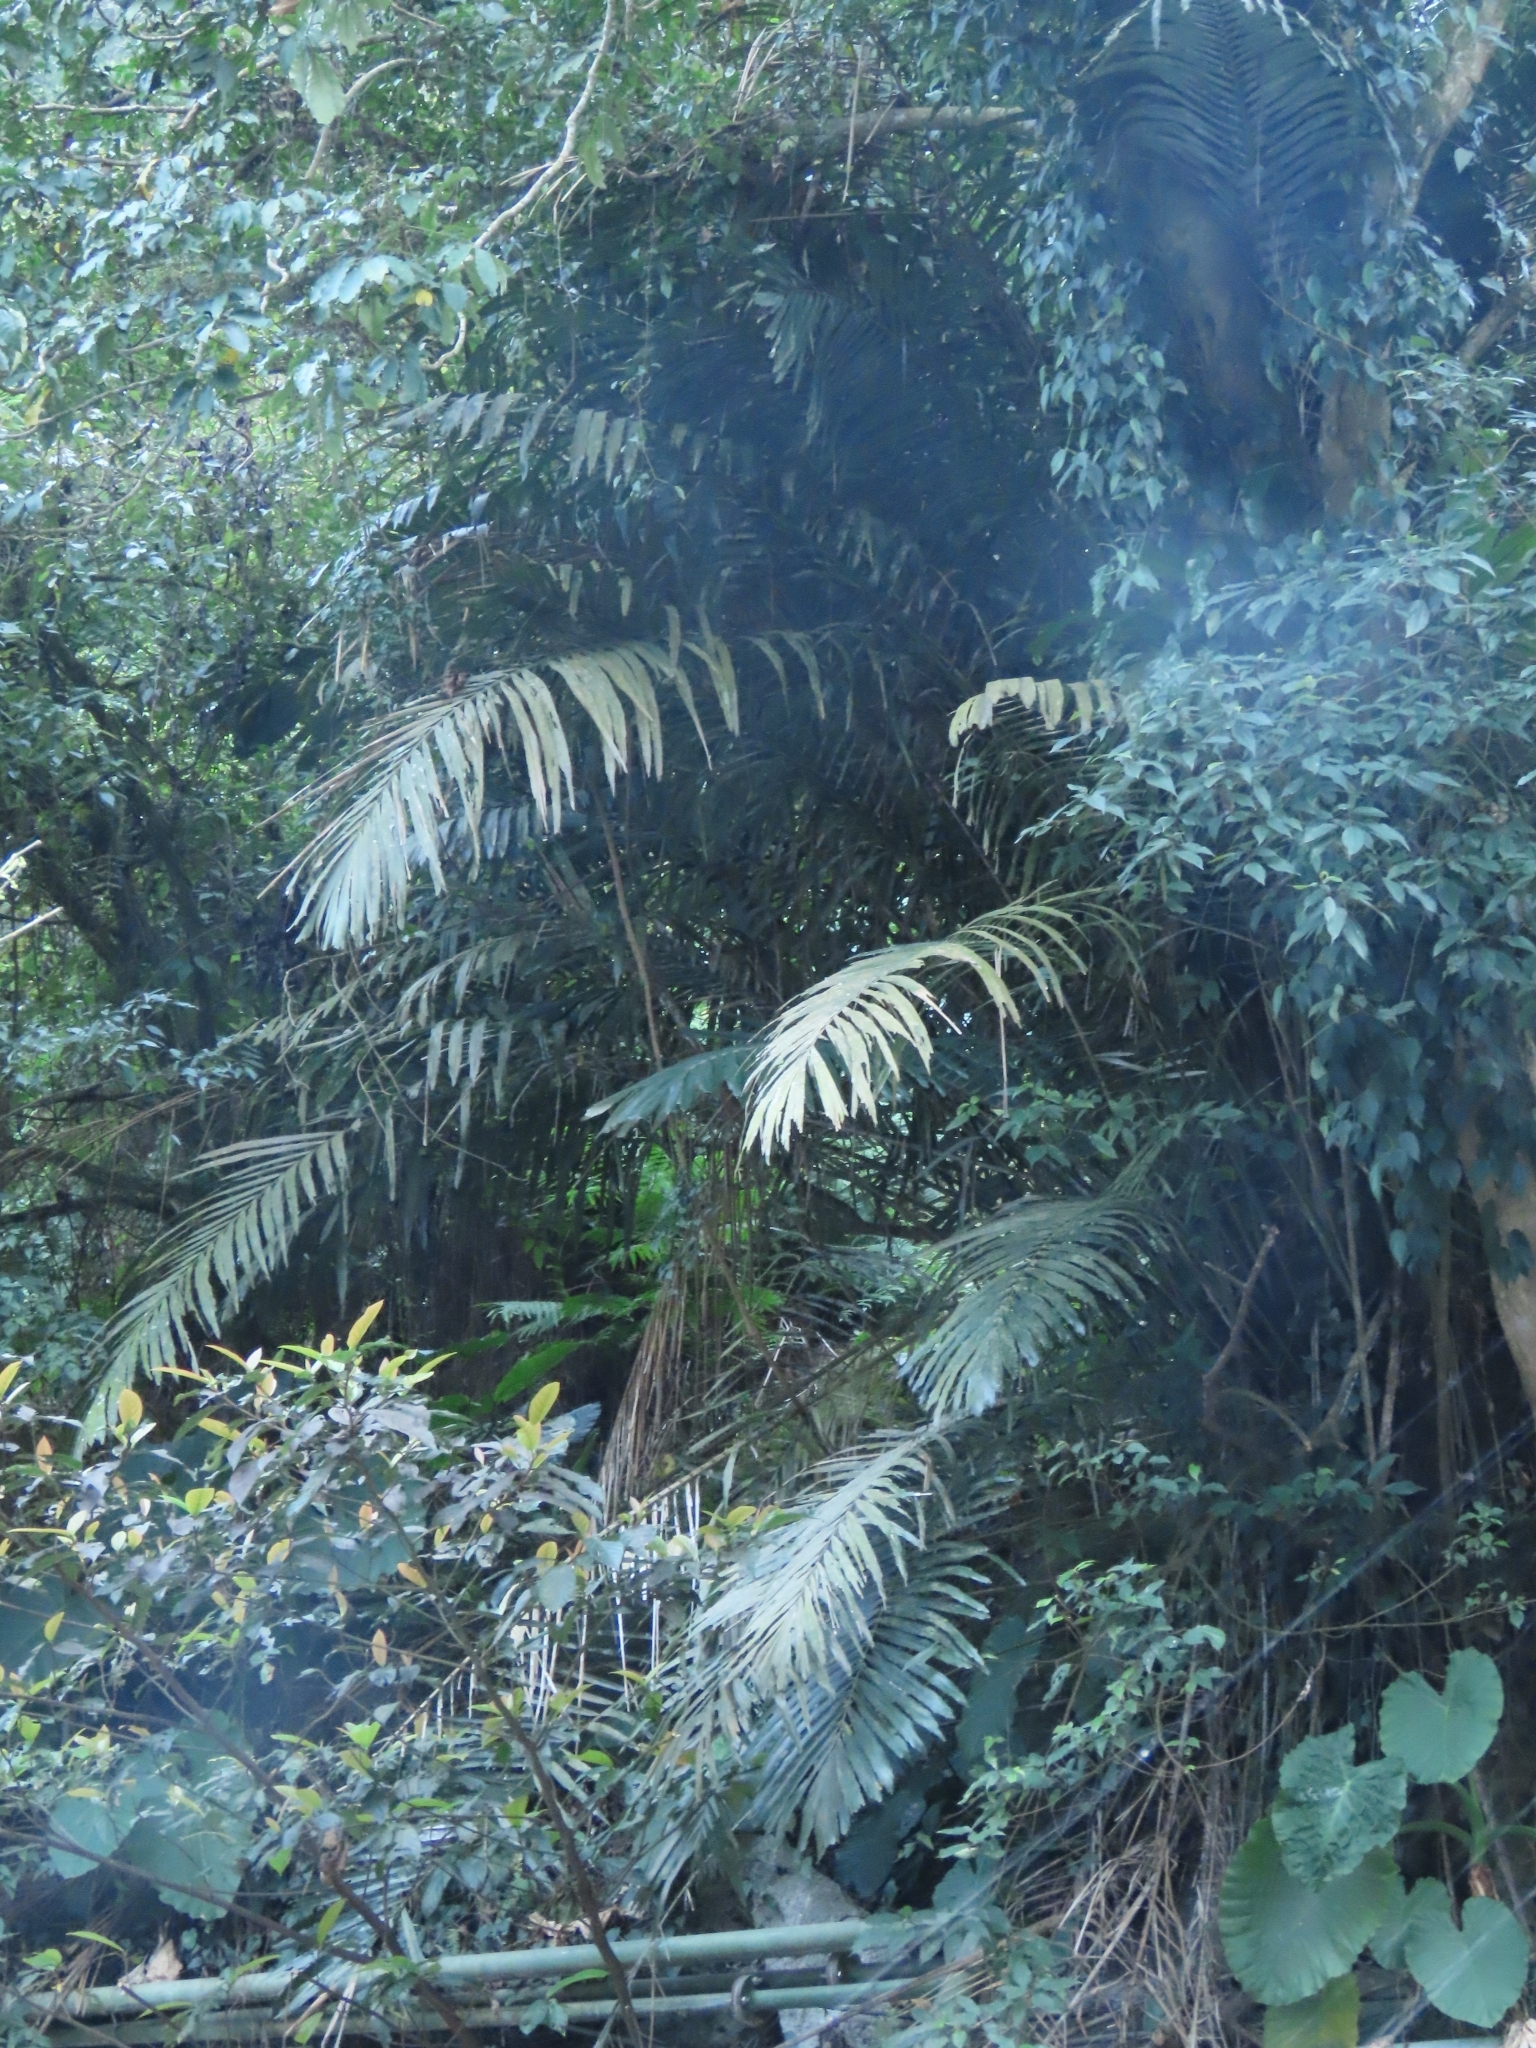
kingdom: Plantae
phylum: Tracheophyta
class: Liliopsida
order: Arecales
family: Arecaceae
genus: Arenga
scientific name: Arenga engleri
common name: Formosan sugar palm
